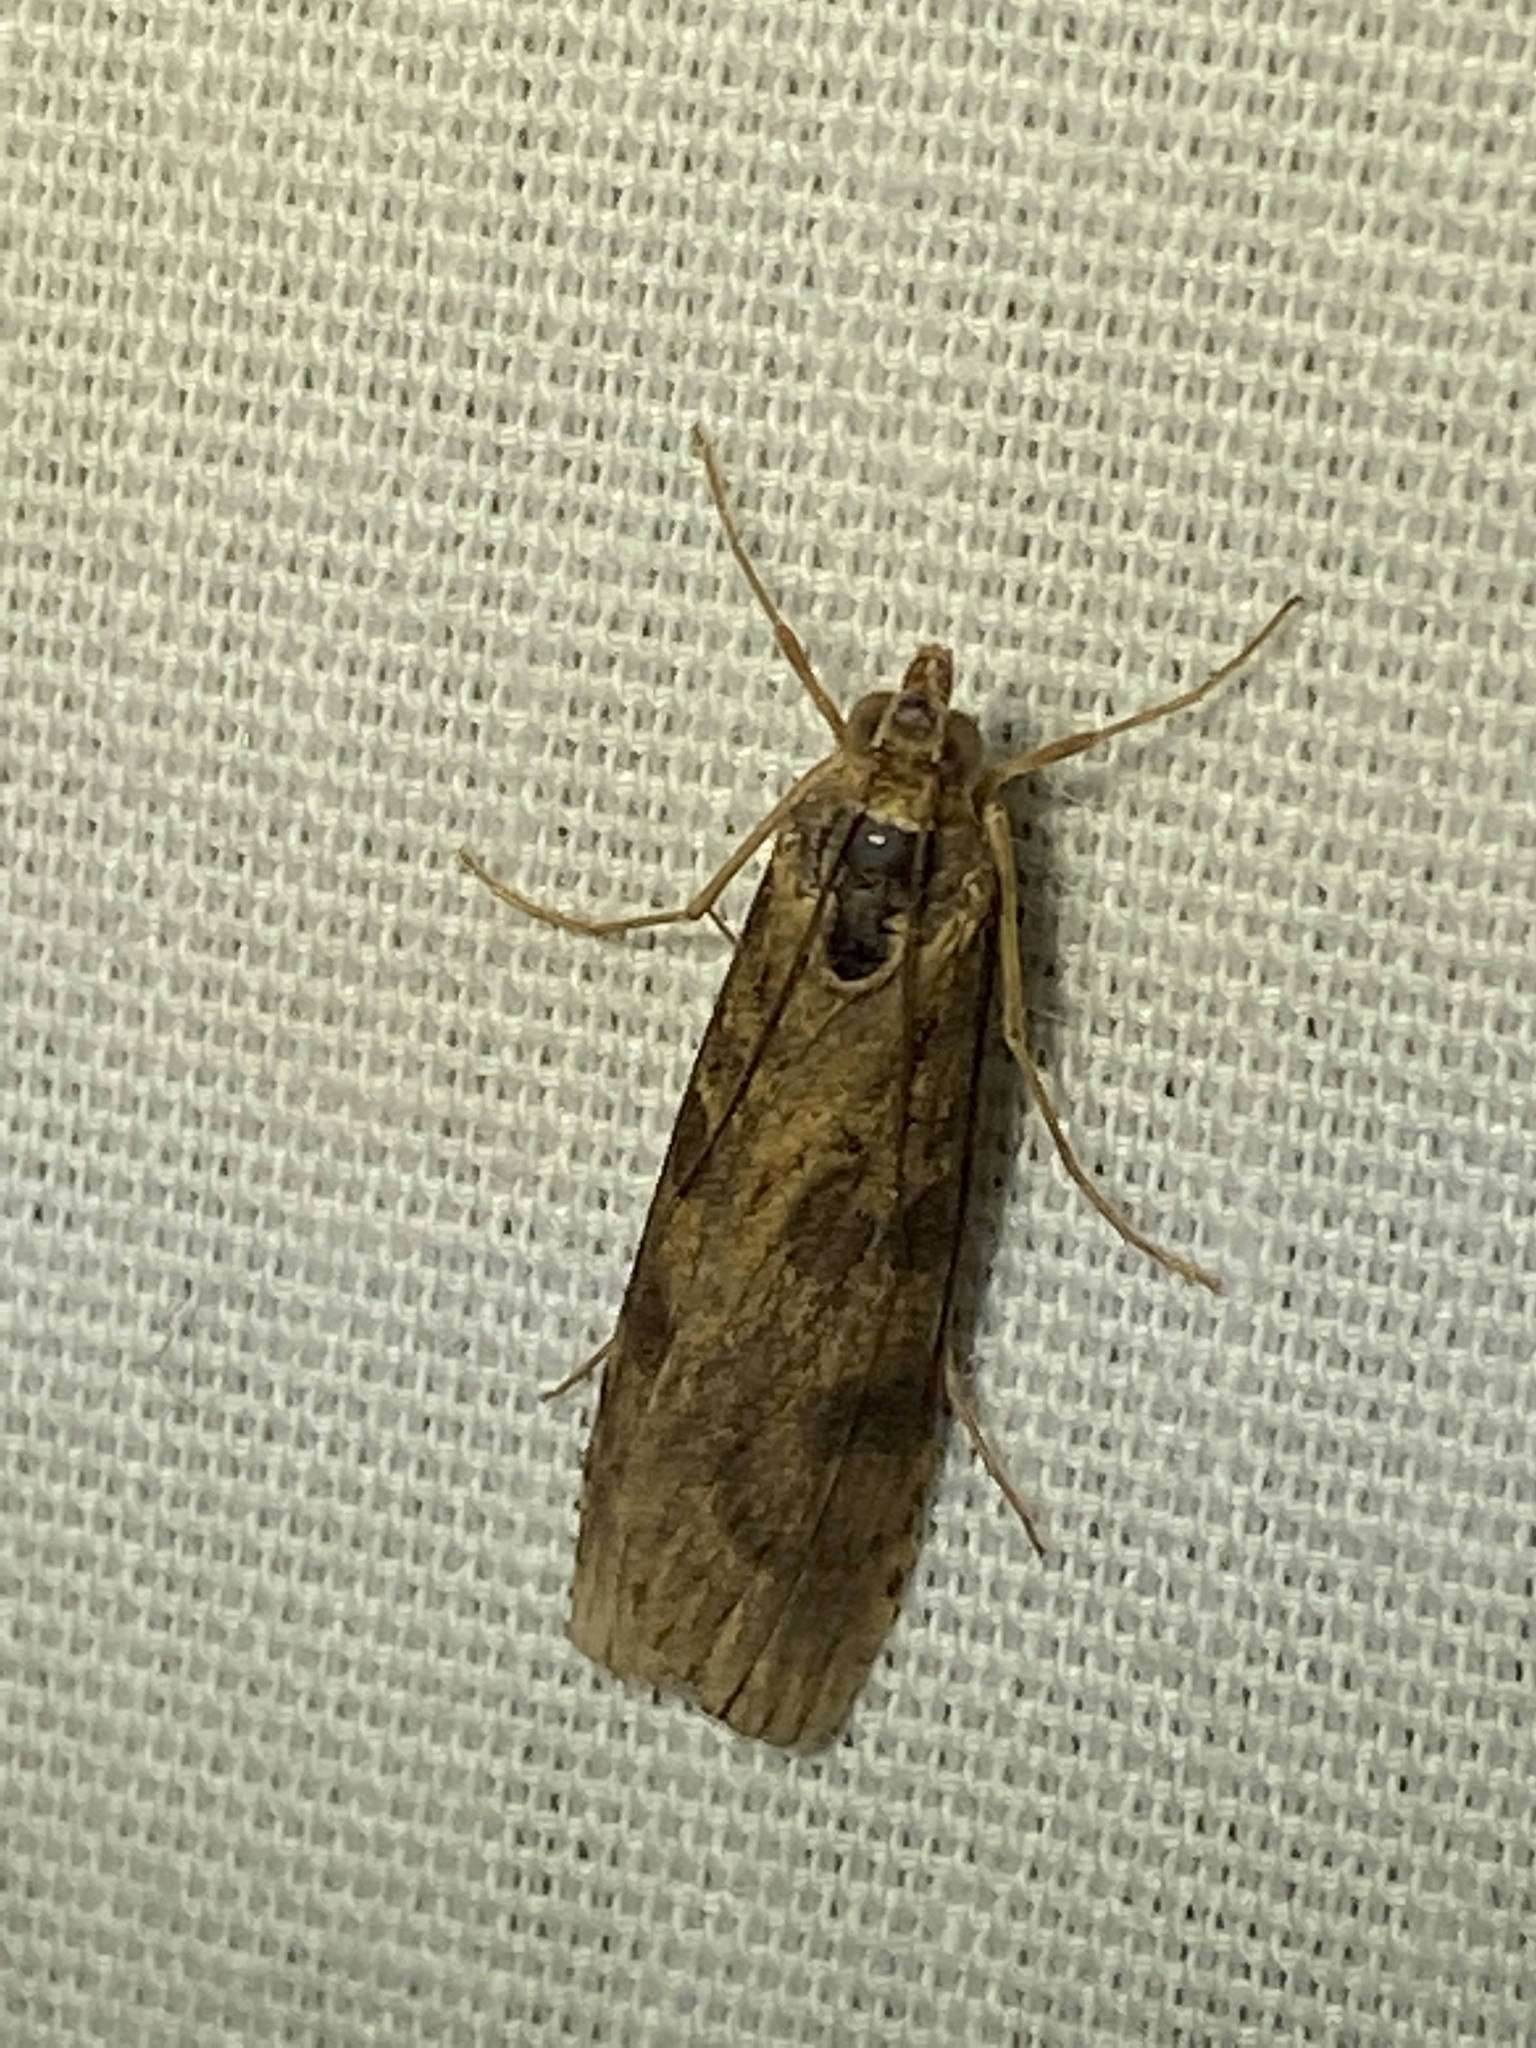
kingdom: Animalia
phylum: Arthropoda
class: Insecta
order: Lepidoptera
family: Crambidae
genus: Nomophila
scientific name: Nomophila nearctica
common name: American rush veneer
